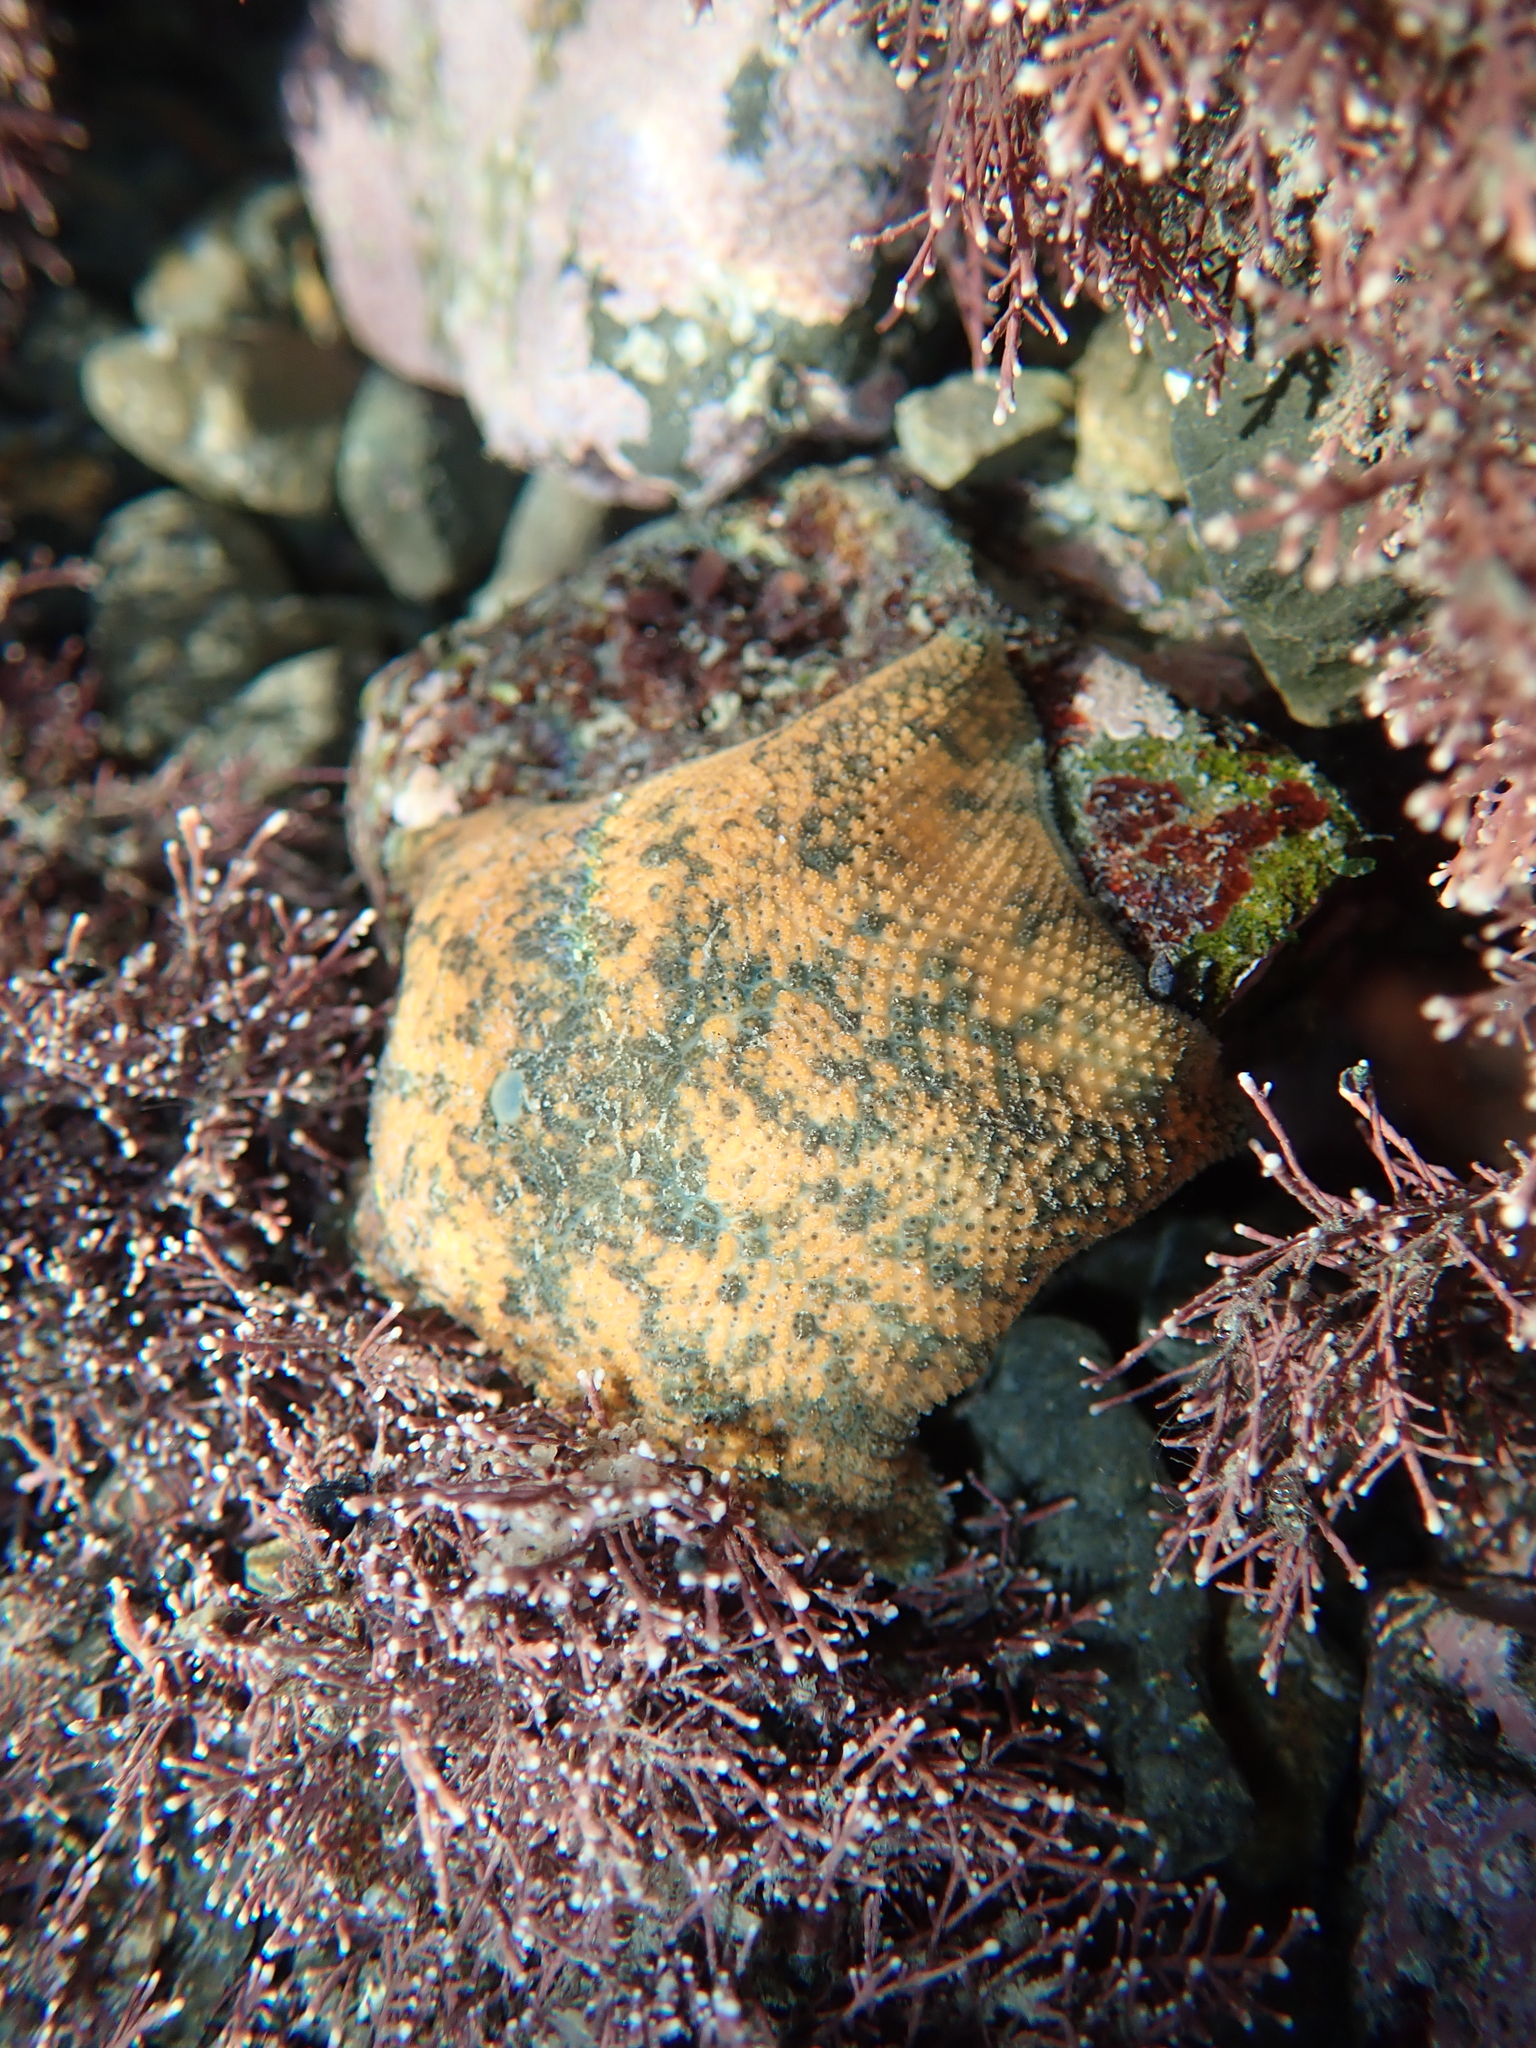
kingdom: Animalia
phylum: Echinodermata
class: Asteroidea
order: Valvatida
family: Asterinidae
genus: Patiriella
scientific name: Patiriella regularis
